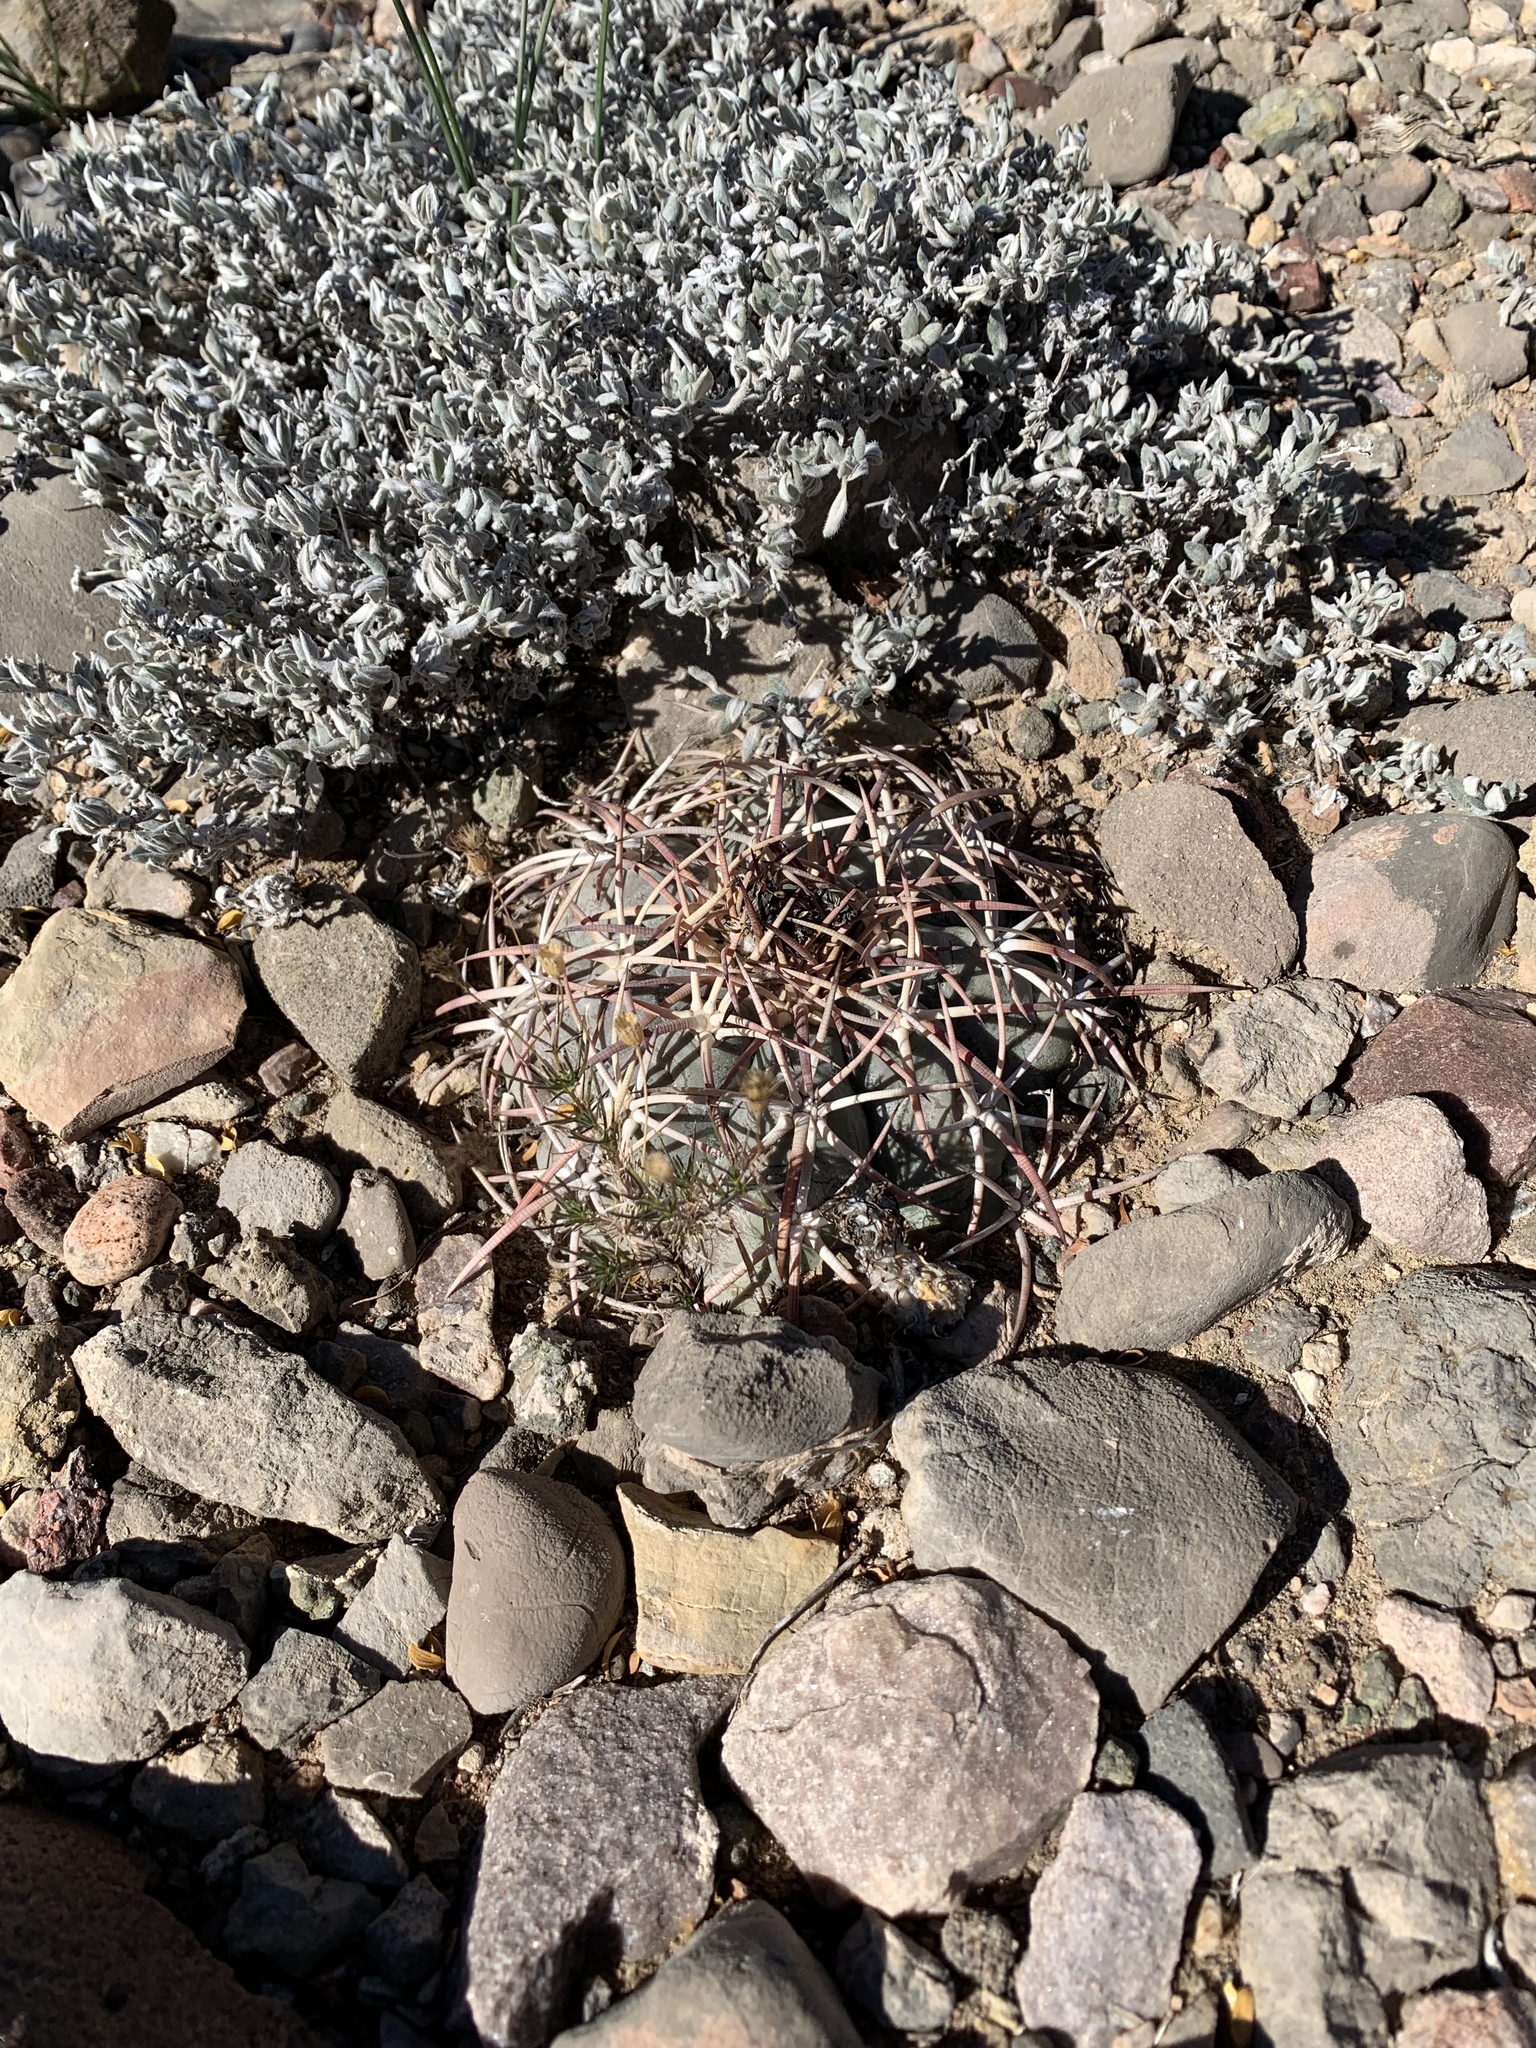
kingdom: Plantae
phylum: Tracheophyta
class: Magnoliopsida
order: Caryophyllales
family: Cactaceae
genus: Echinocactus
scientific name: Echinocactus horizonthalonius
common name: Devilshead
